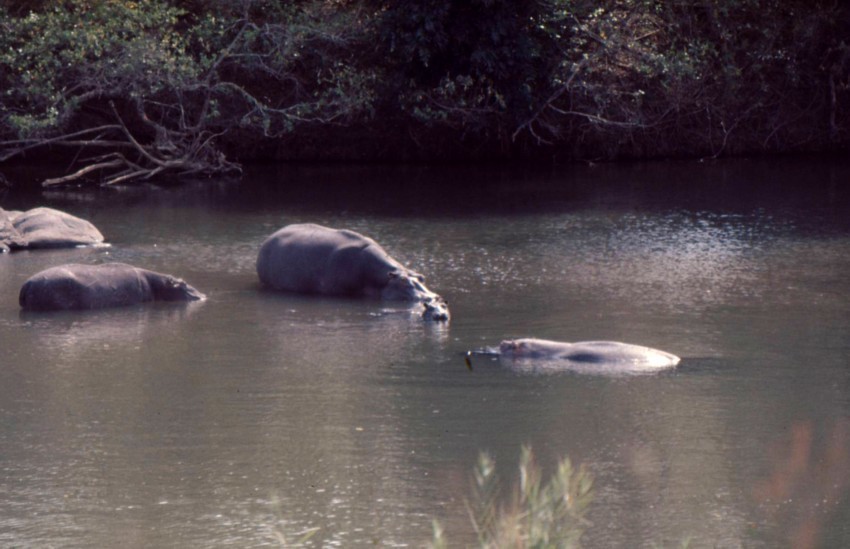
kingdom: Animalia
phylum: Chordata
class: Mammalia
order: Artiodactyla
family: Hippopotamidae
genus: Hippopotamus
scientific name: Hippopotamus amphibius
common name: Common hippopotamus
